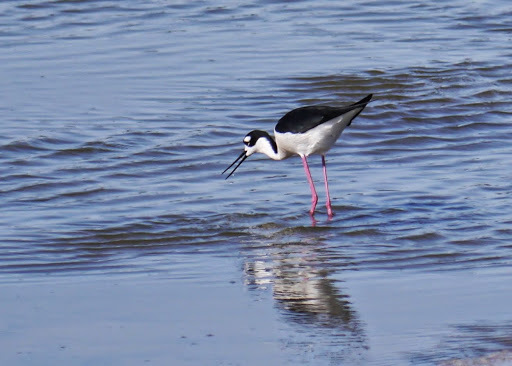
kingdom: Animalia
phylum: Chordata
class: Aves
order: Charadriiformes
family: Recurvirostridae
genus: Himantopus
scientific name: Himantopus mexicanus
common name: Black-necked stilt
